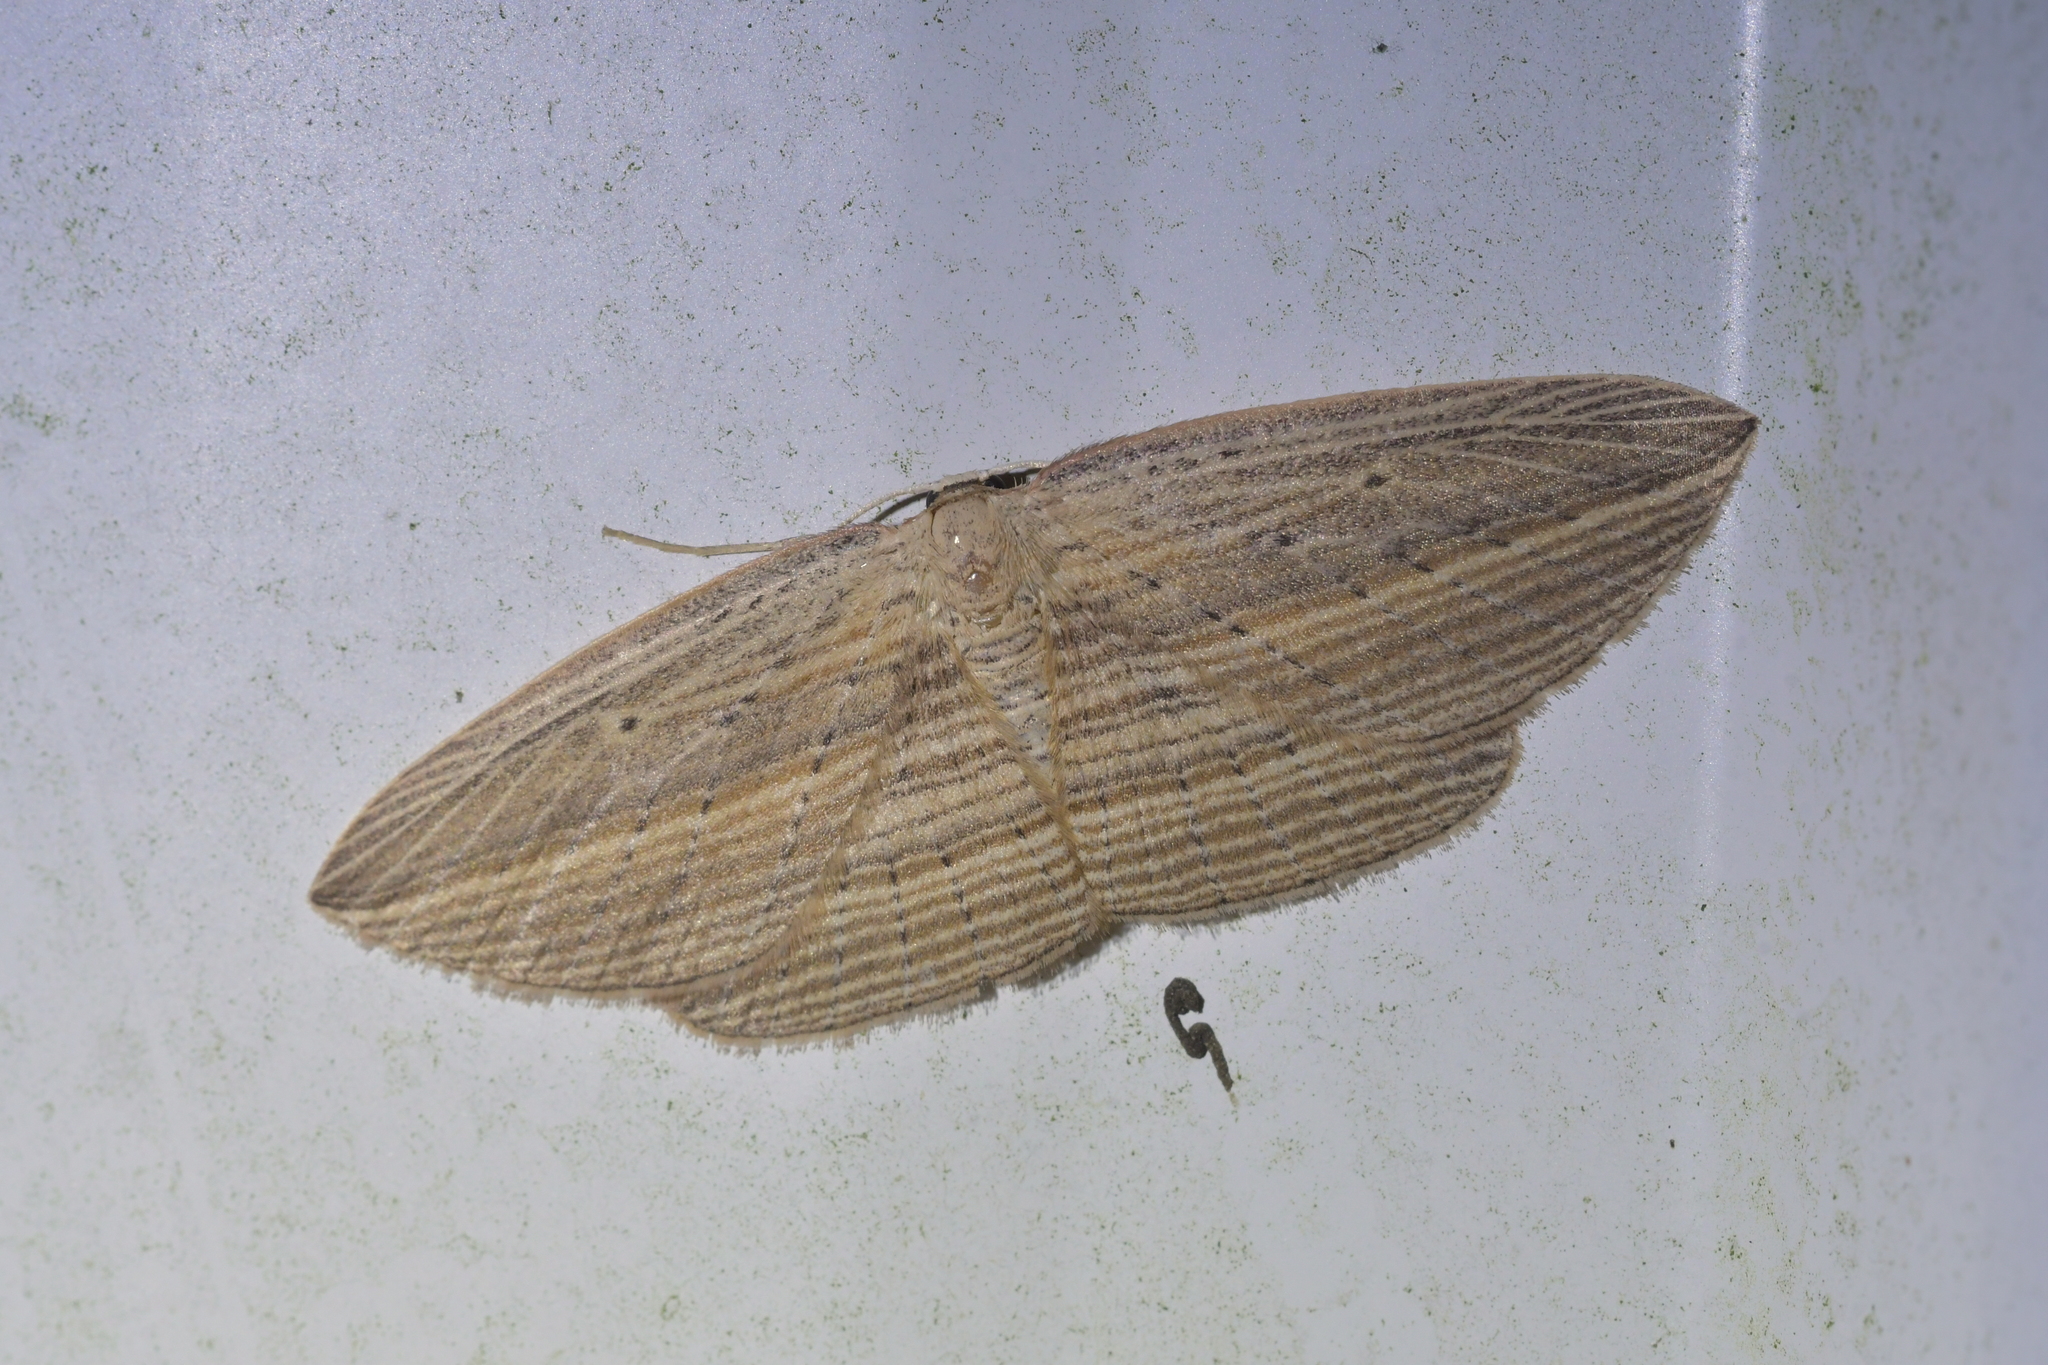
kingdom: Animalia
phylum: Arthropoda
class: Insecta
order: Lepidoptera
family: Geometridae
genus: Epiphryne
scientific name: Epiphryne verriculata
